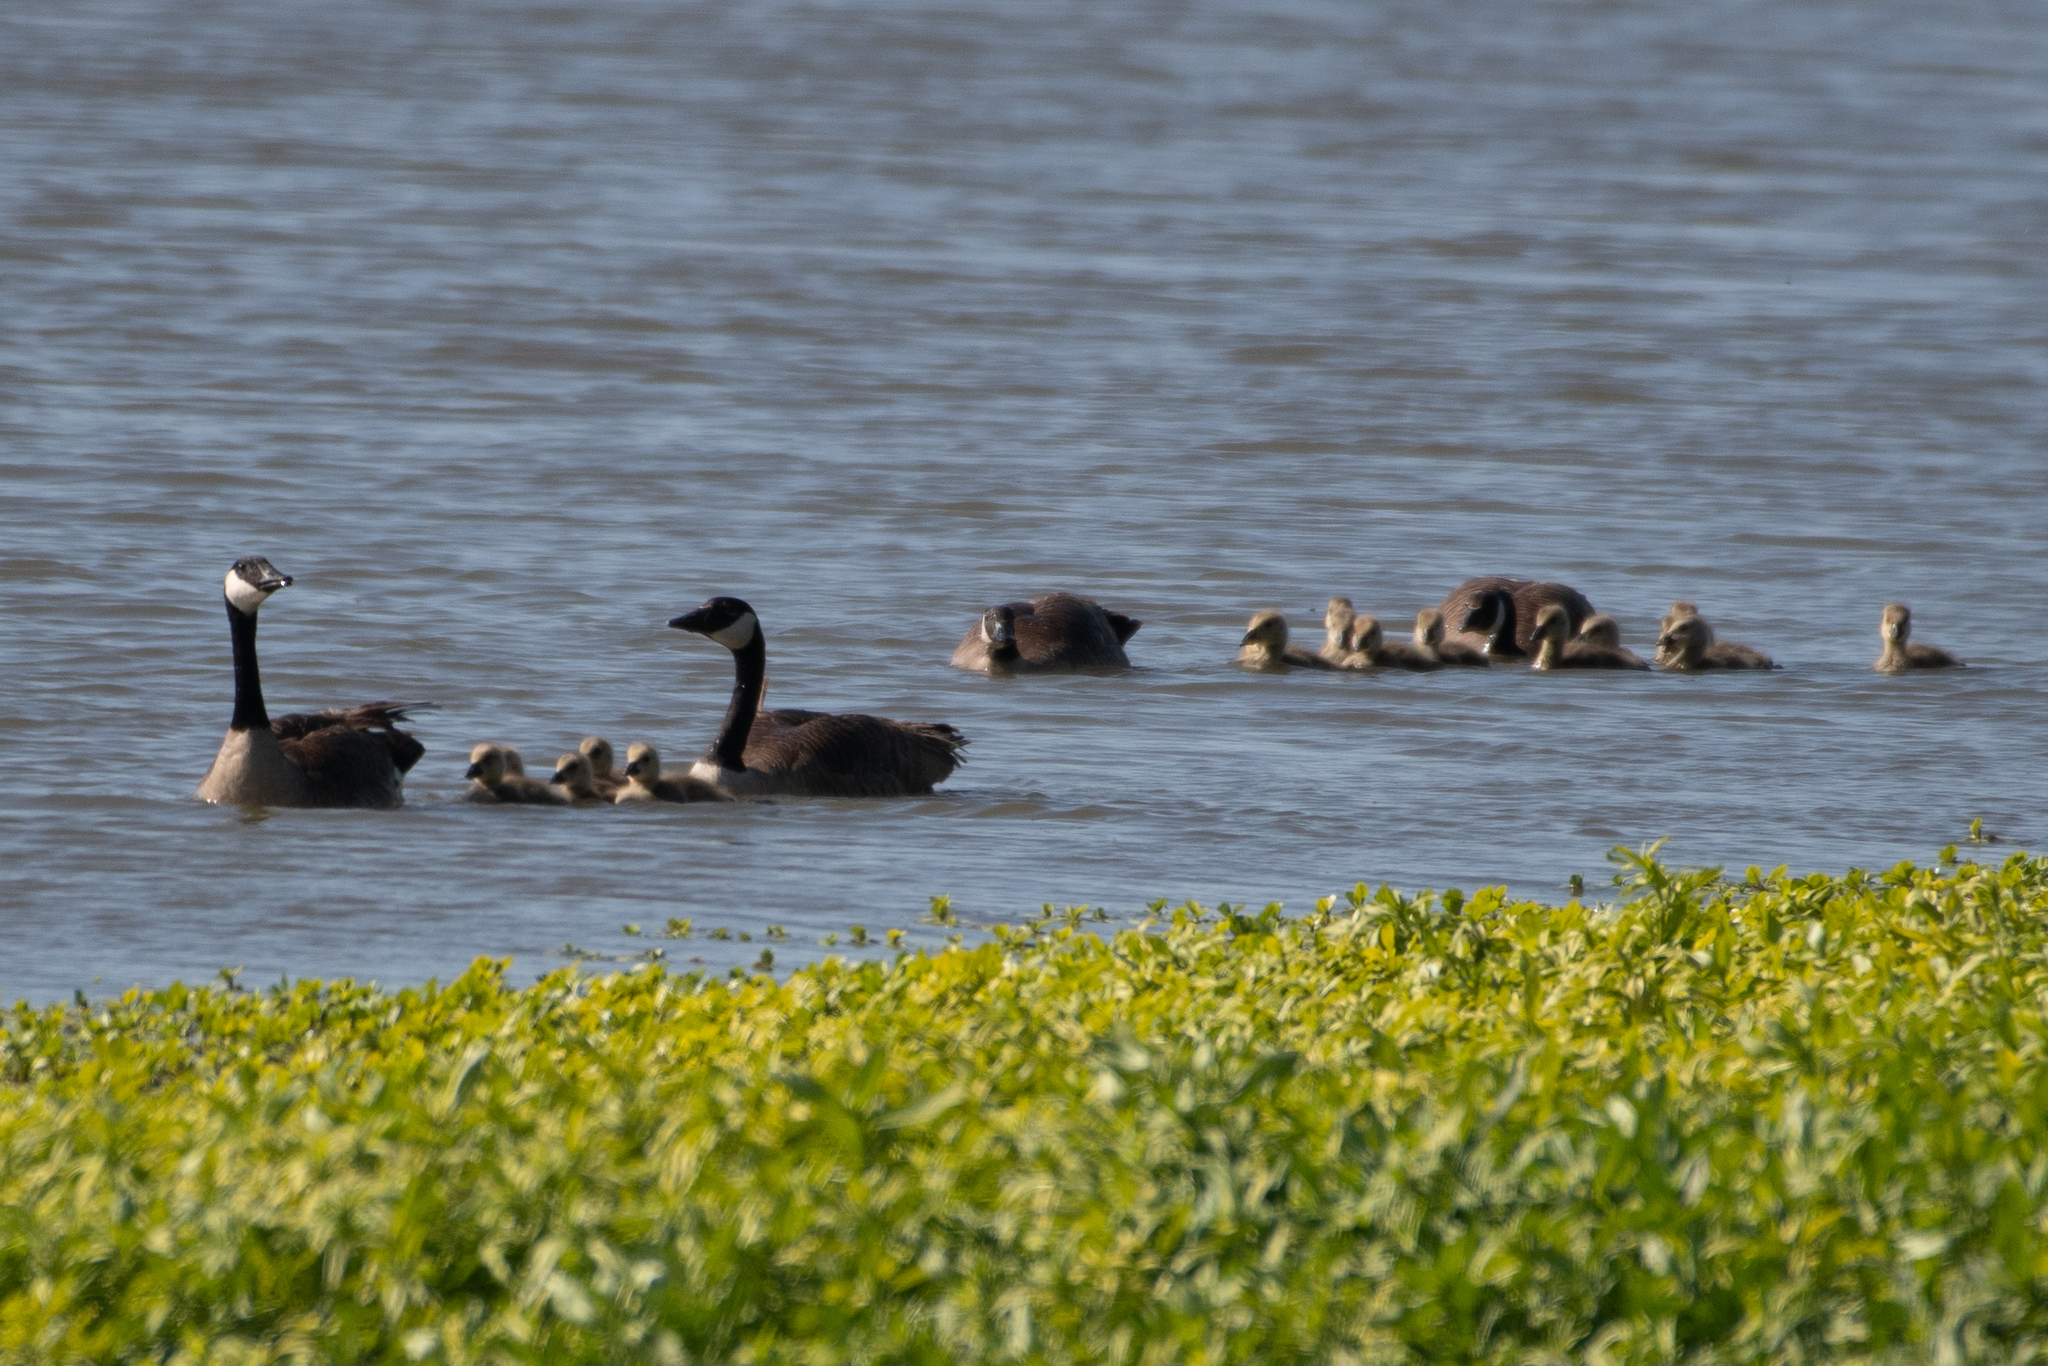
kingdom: Animalia
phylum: Chordata
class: Aves
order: Anseriformes
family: Anatidae
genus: Branta
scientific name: Branta canadensis
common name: Canada goose
